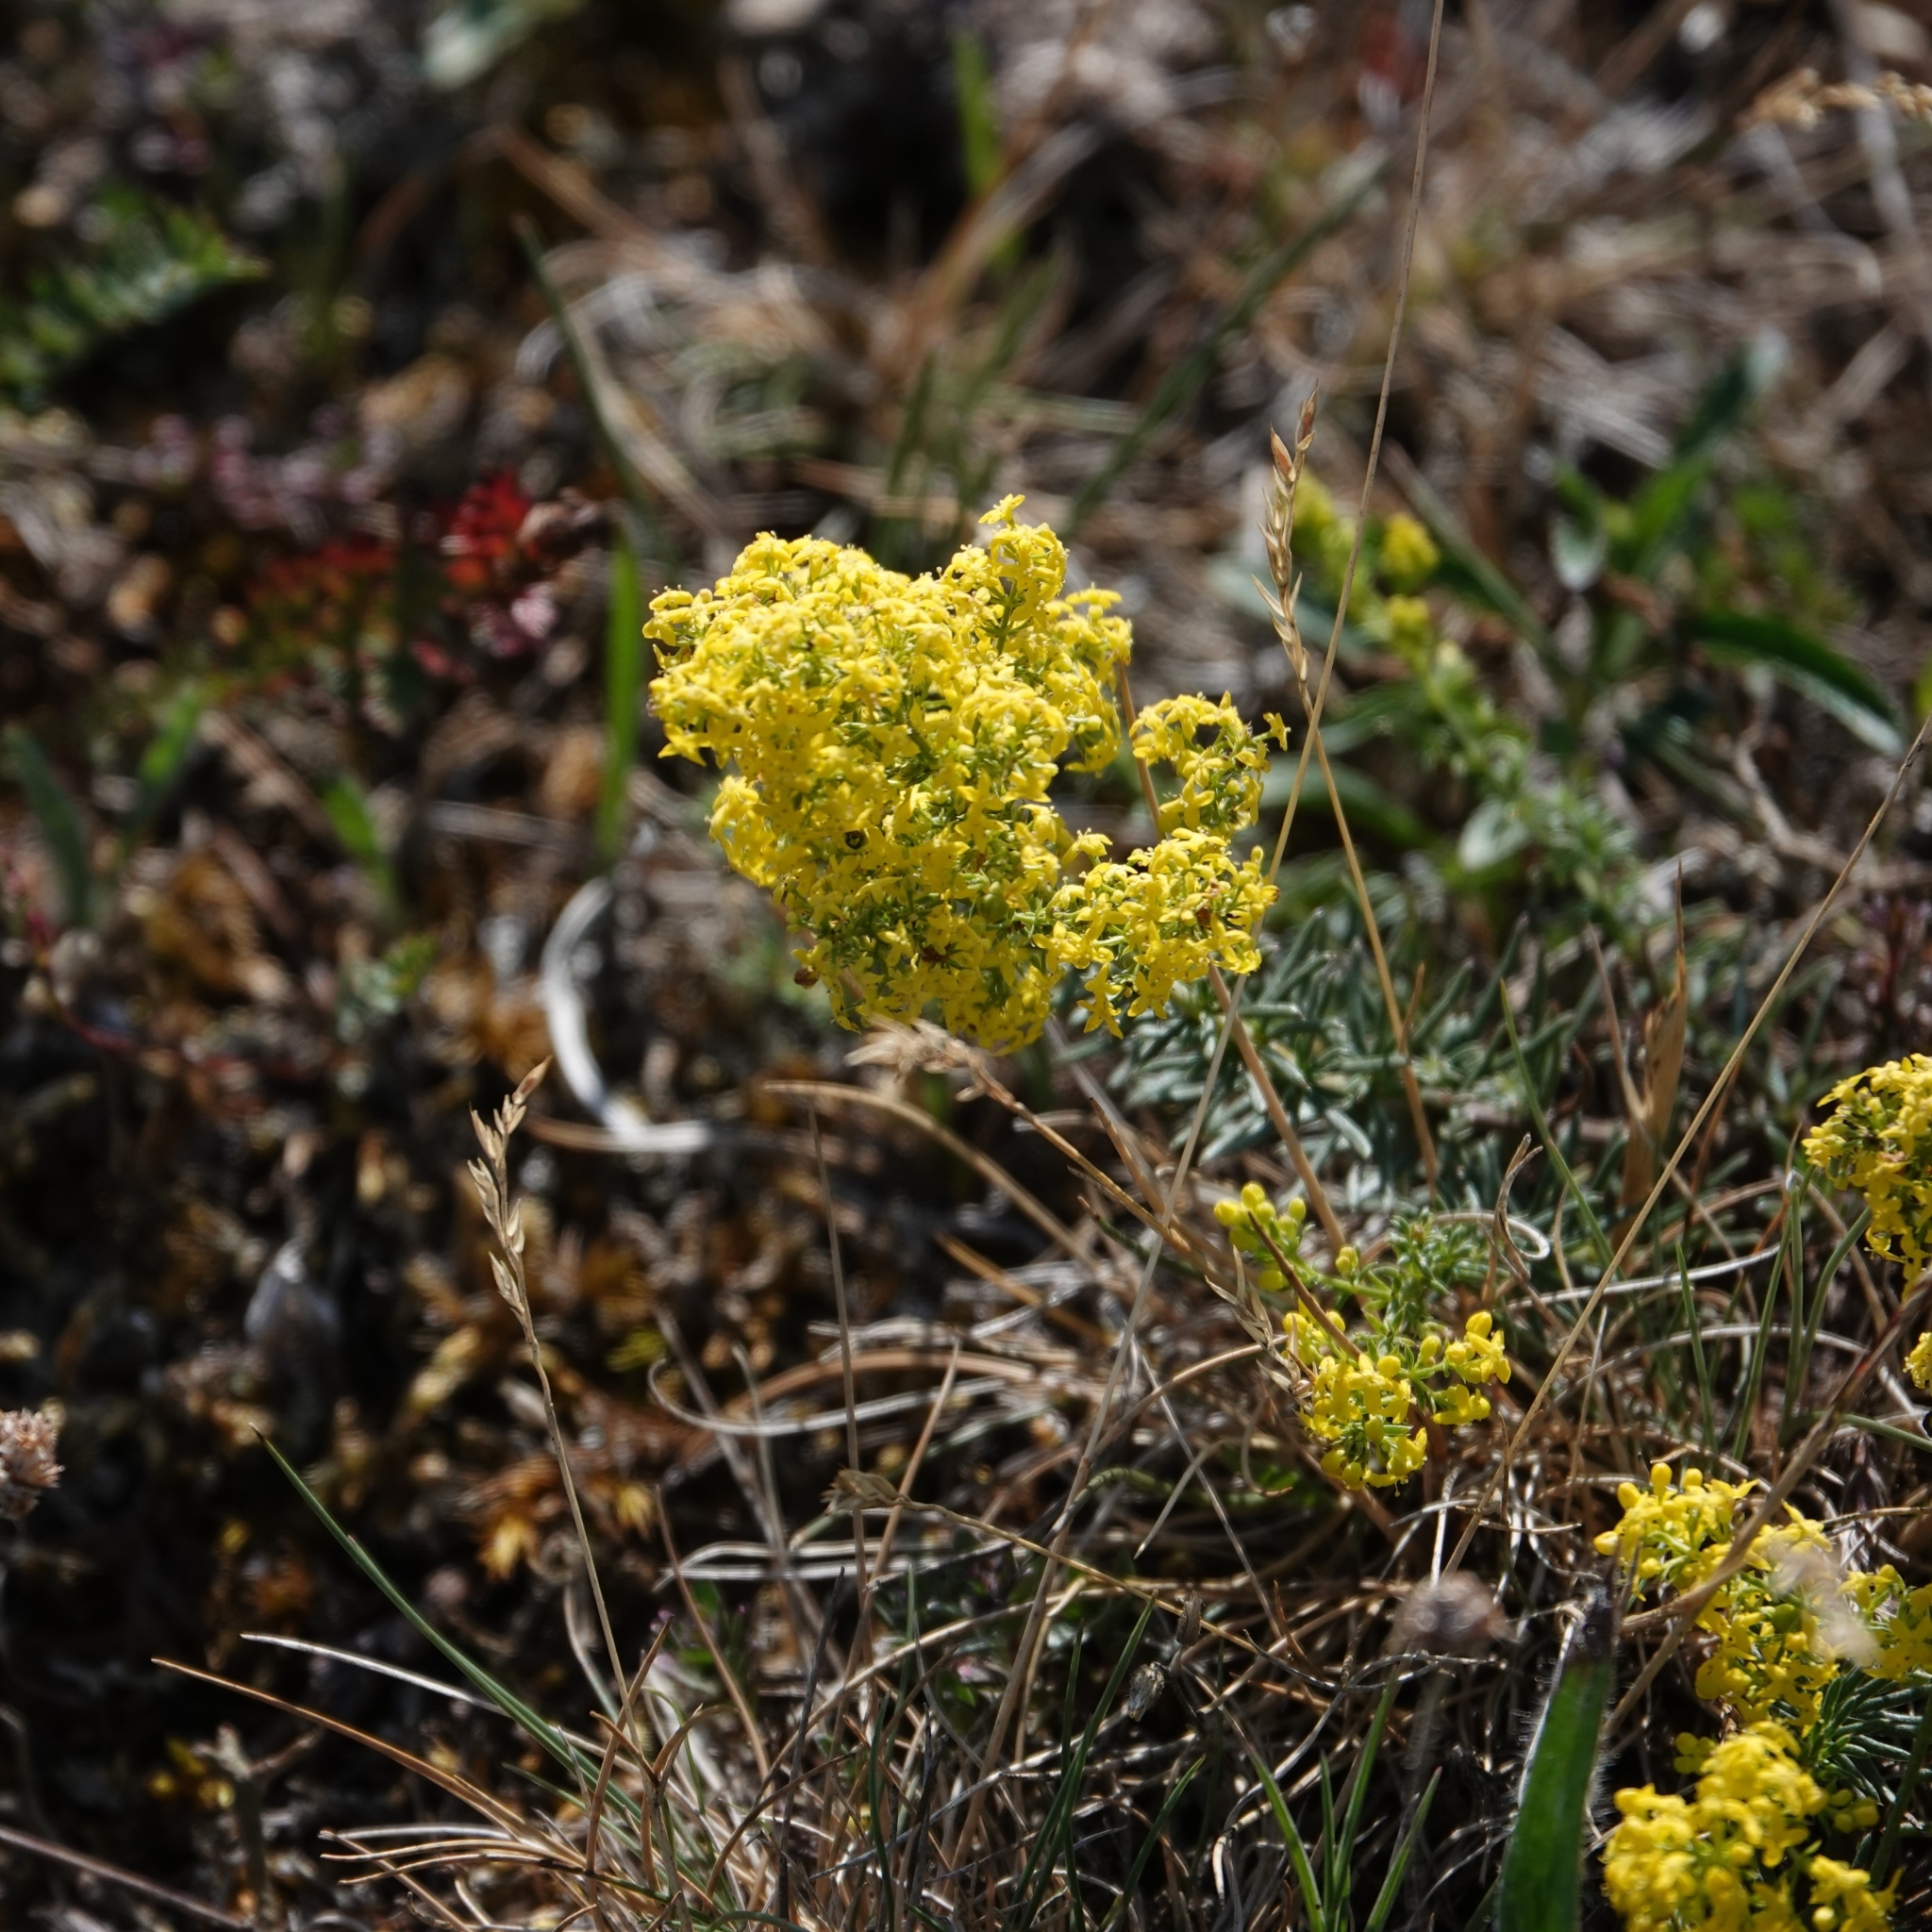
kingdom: Plantae
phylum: Tracheophyta
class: Magnoliopsida
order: Gentianales
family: Rubiaceae
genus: Galium
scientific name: Galium verum
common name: Lady's bedstraw
